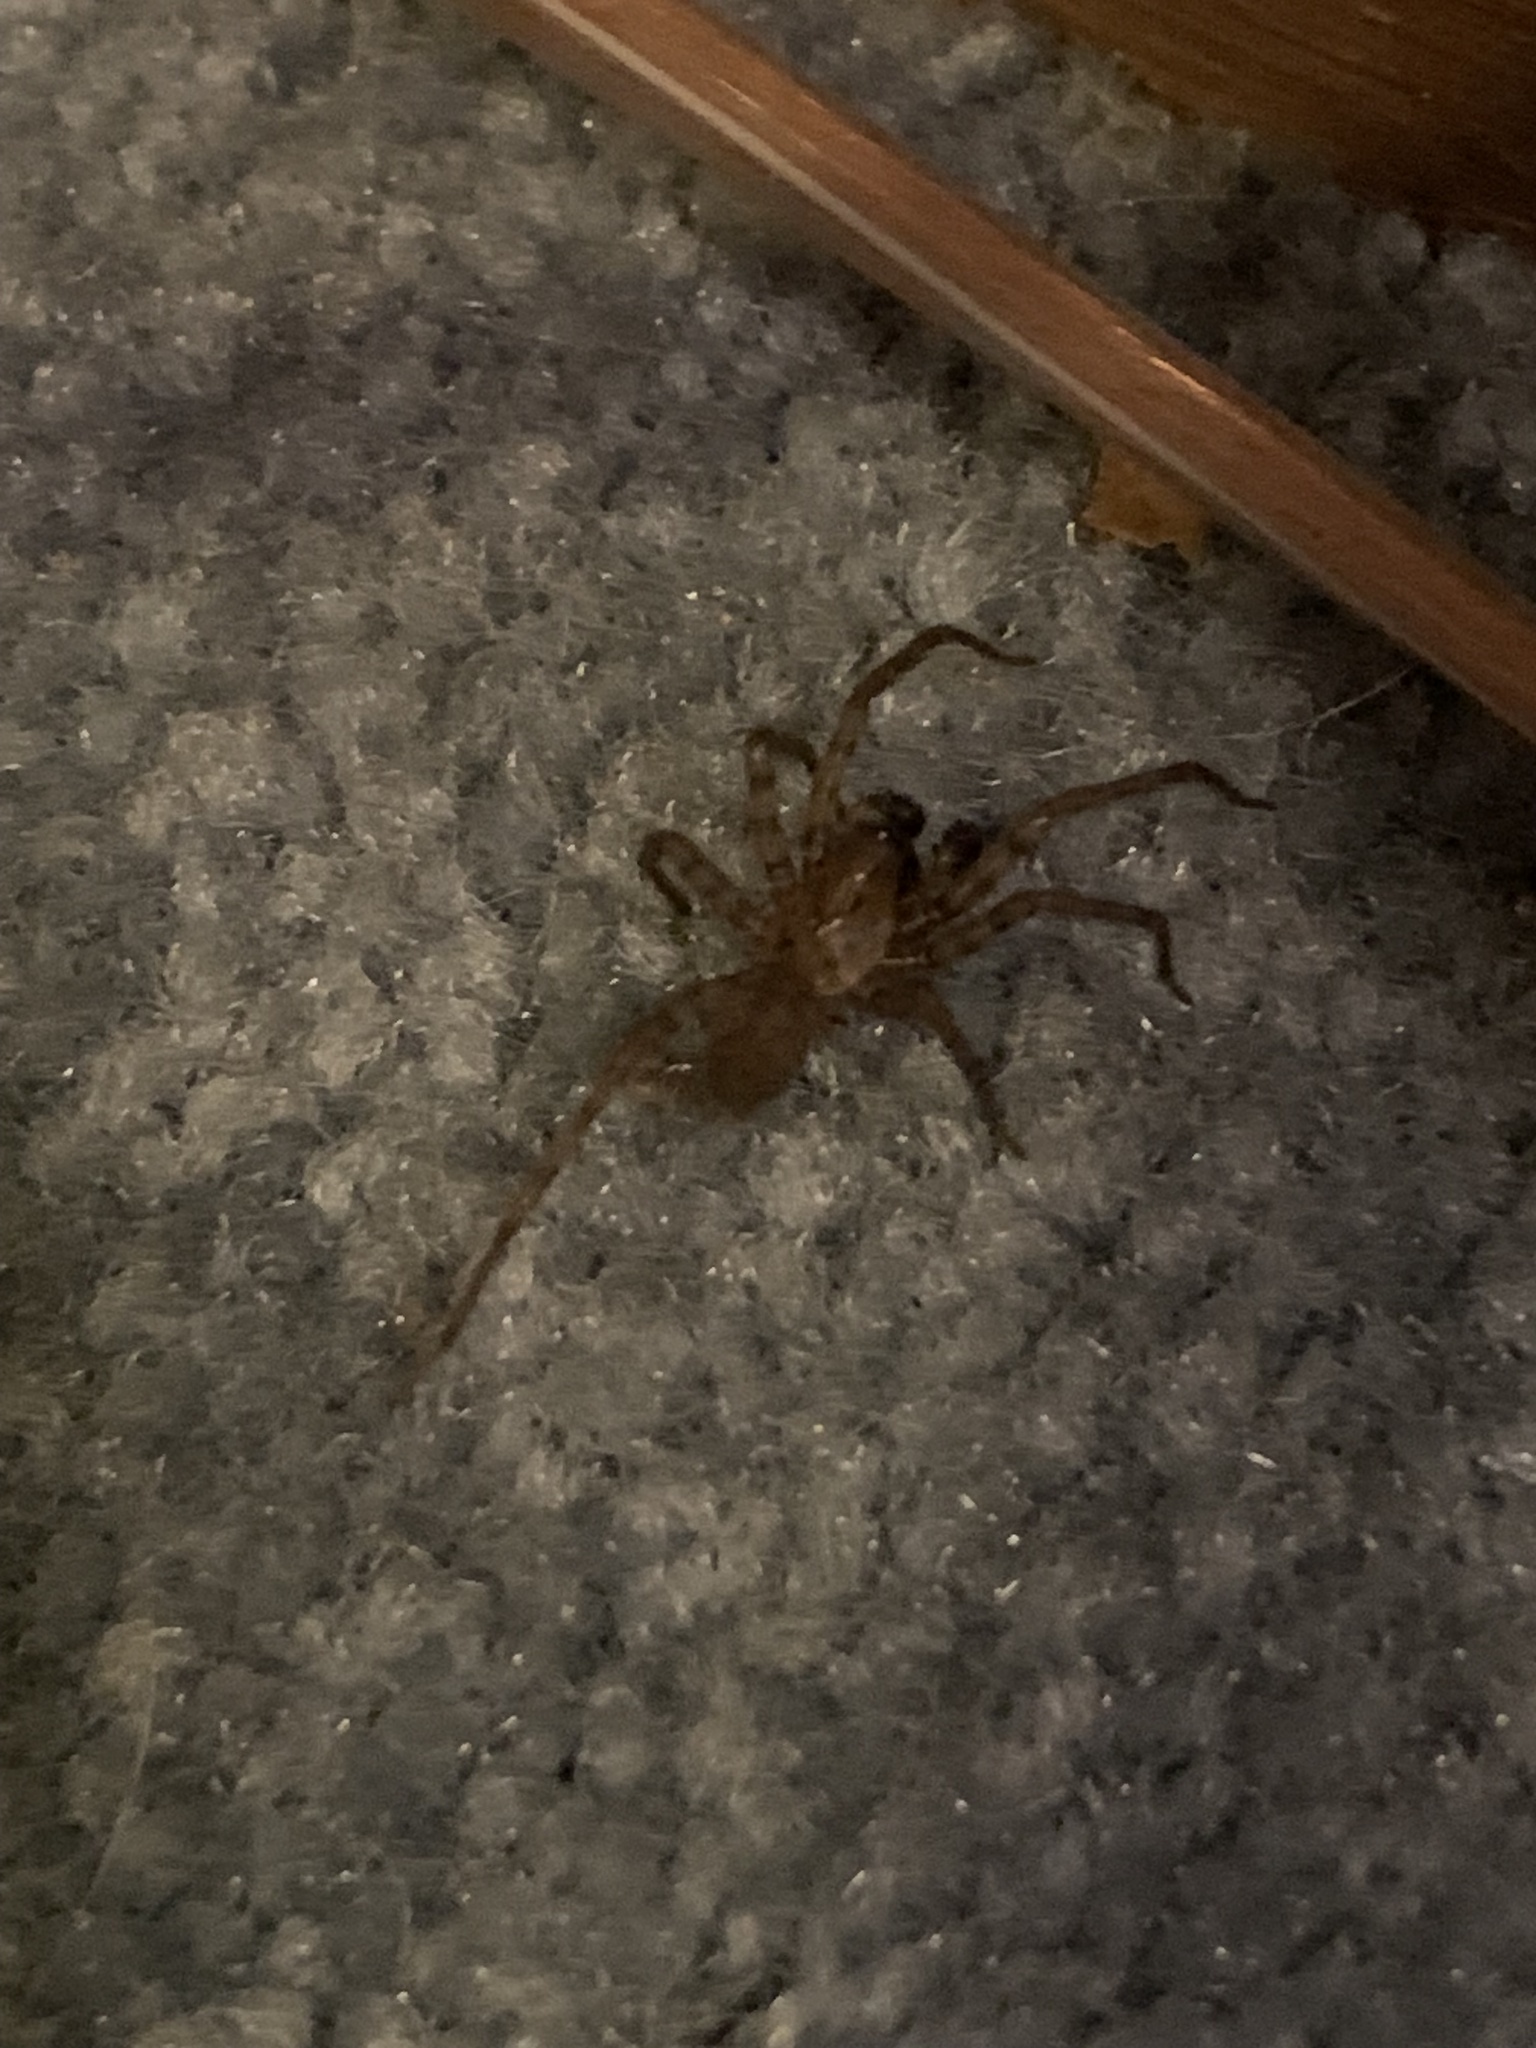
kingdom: Animalia
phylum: Arthropoda
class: Arachnida
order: Araneae
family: Agelenidae
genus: Coras
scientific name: Coras
